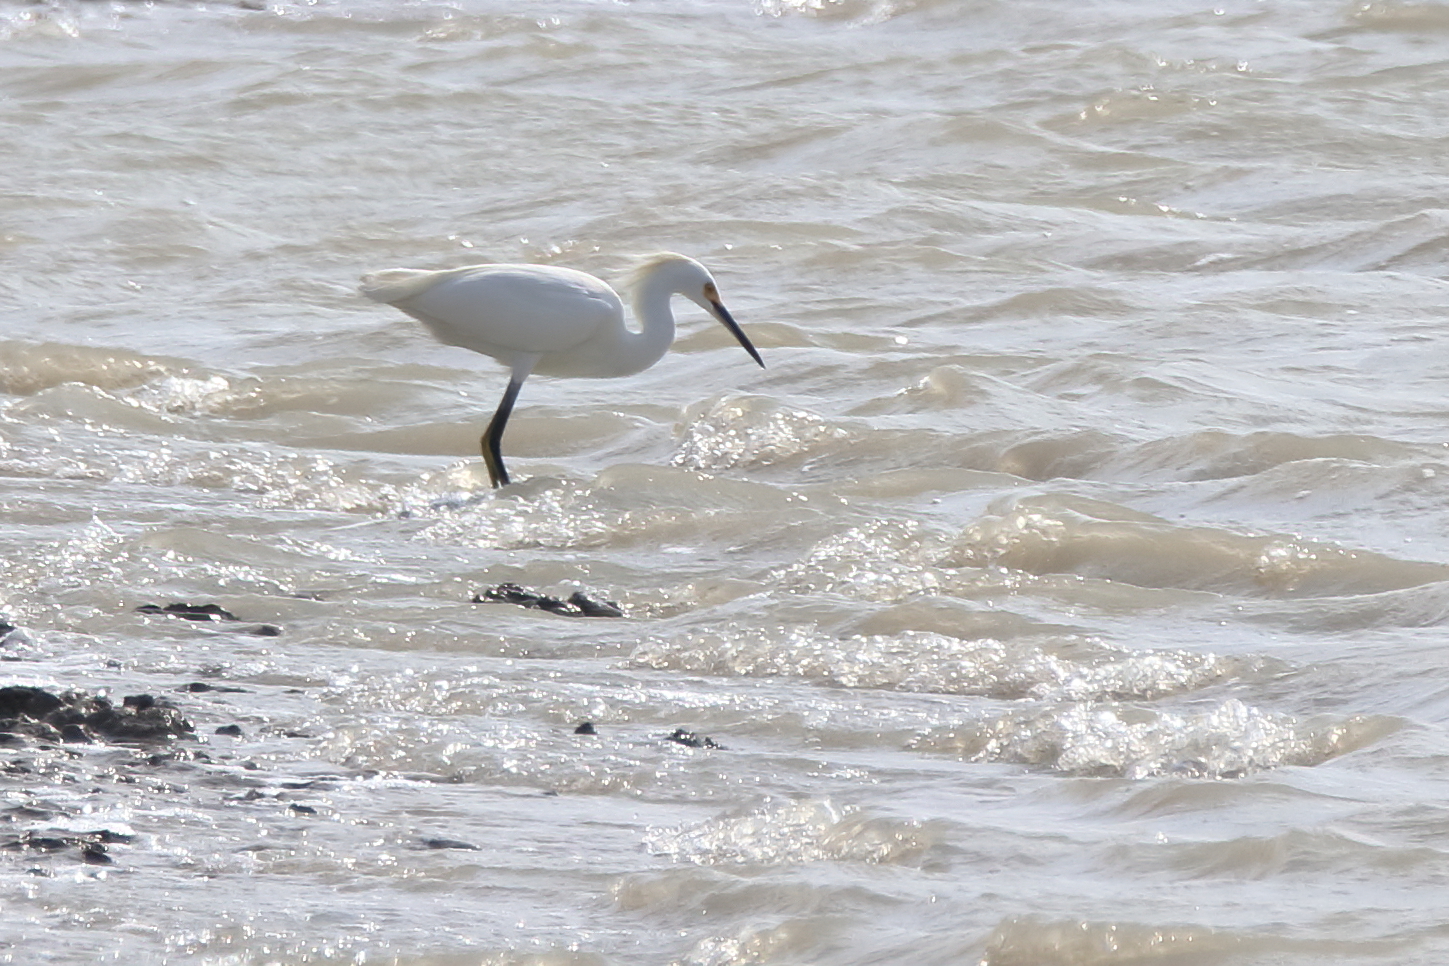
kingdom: Animalia
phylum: Chordata
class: Aves
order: Pelecaniformes
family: Ardeidae
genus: Egretta
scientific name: Egretta thula
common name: Snowy egret
